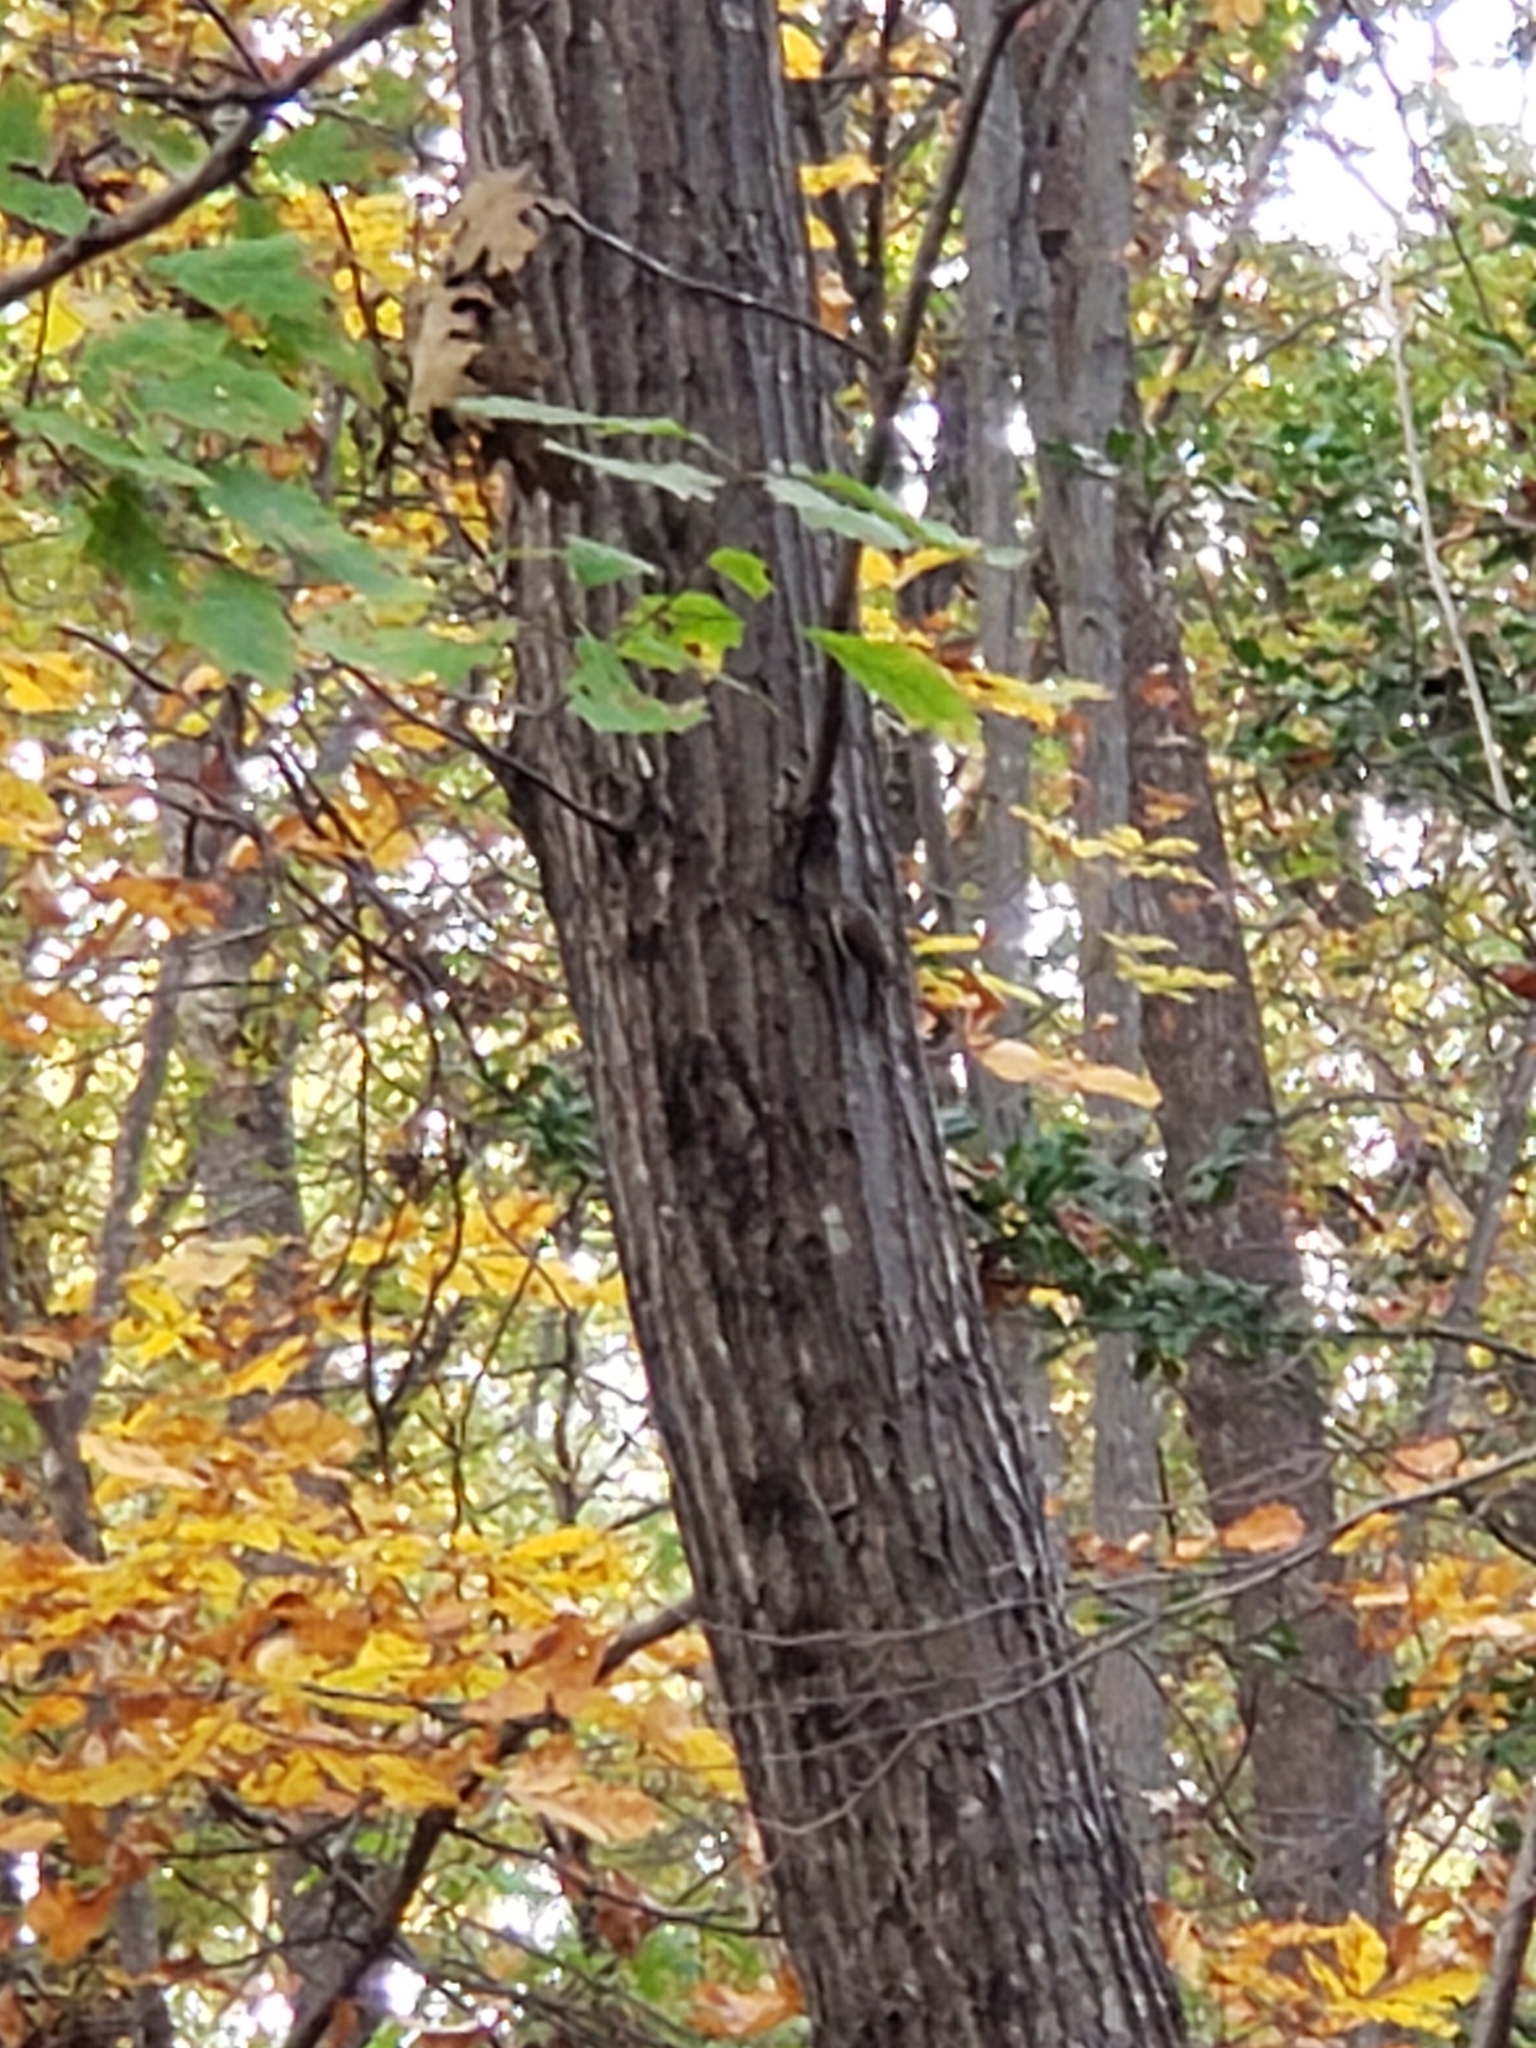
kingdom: Animalia
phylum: Chordata
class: Aves
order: Passeriformes
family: Certhiidae
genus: Certhia
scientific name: Certhia americana
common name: Brown creeper
